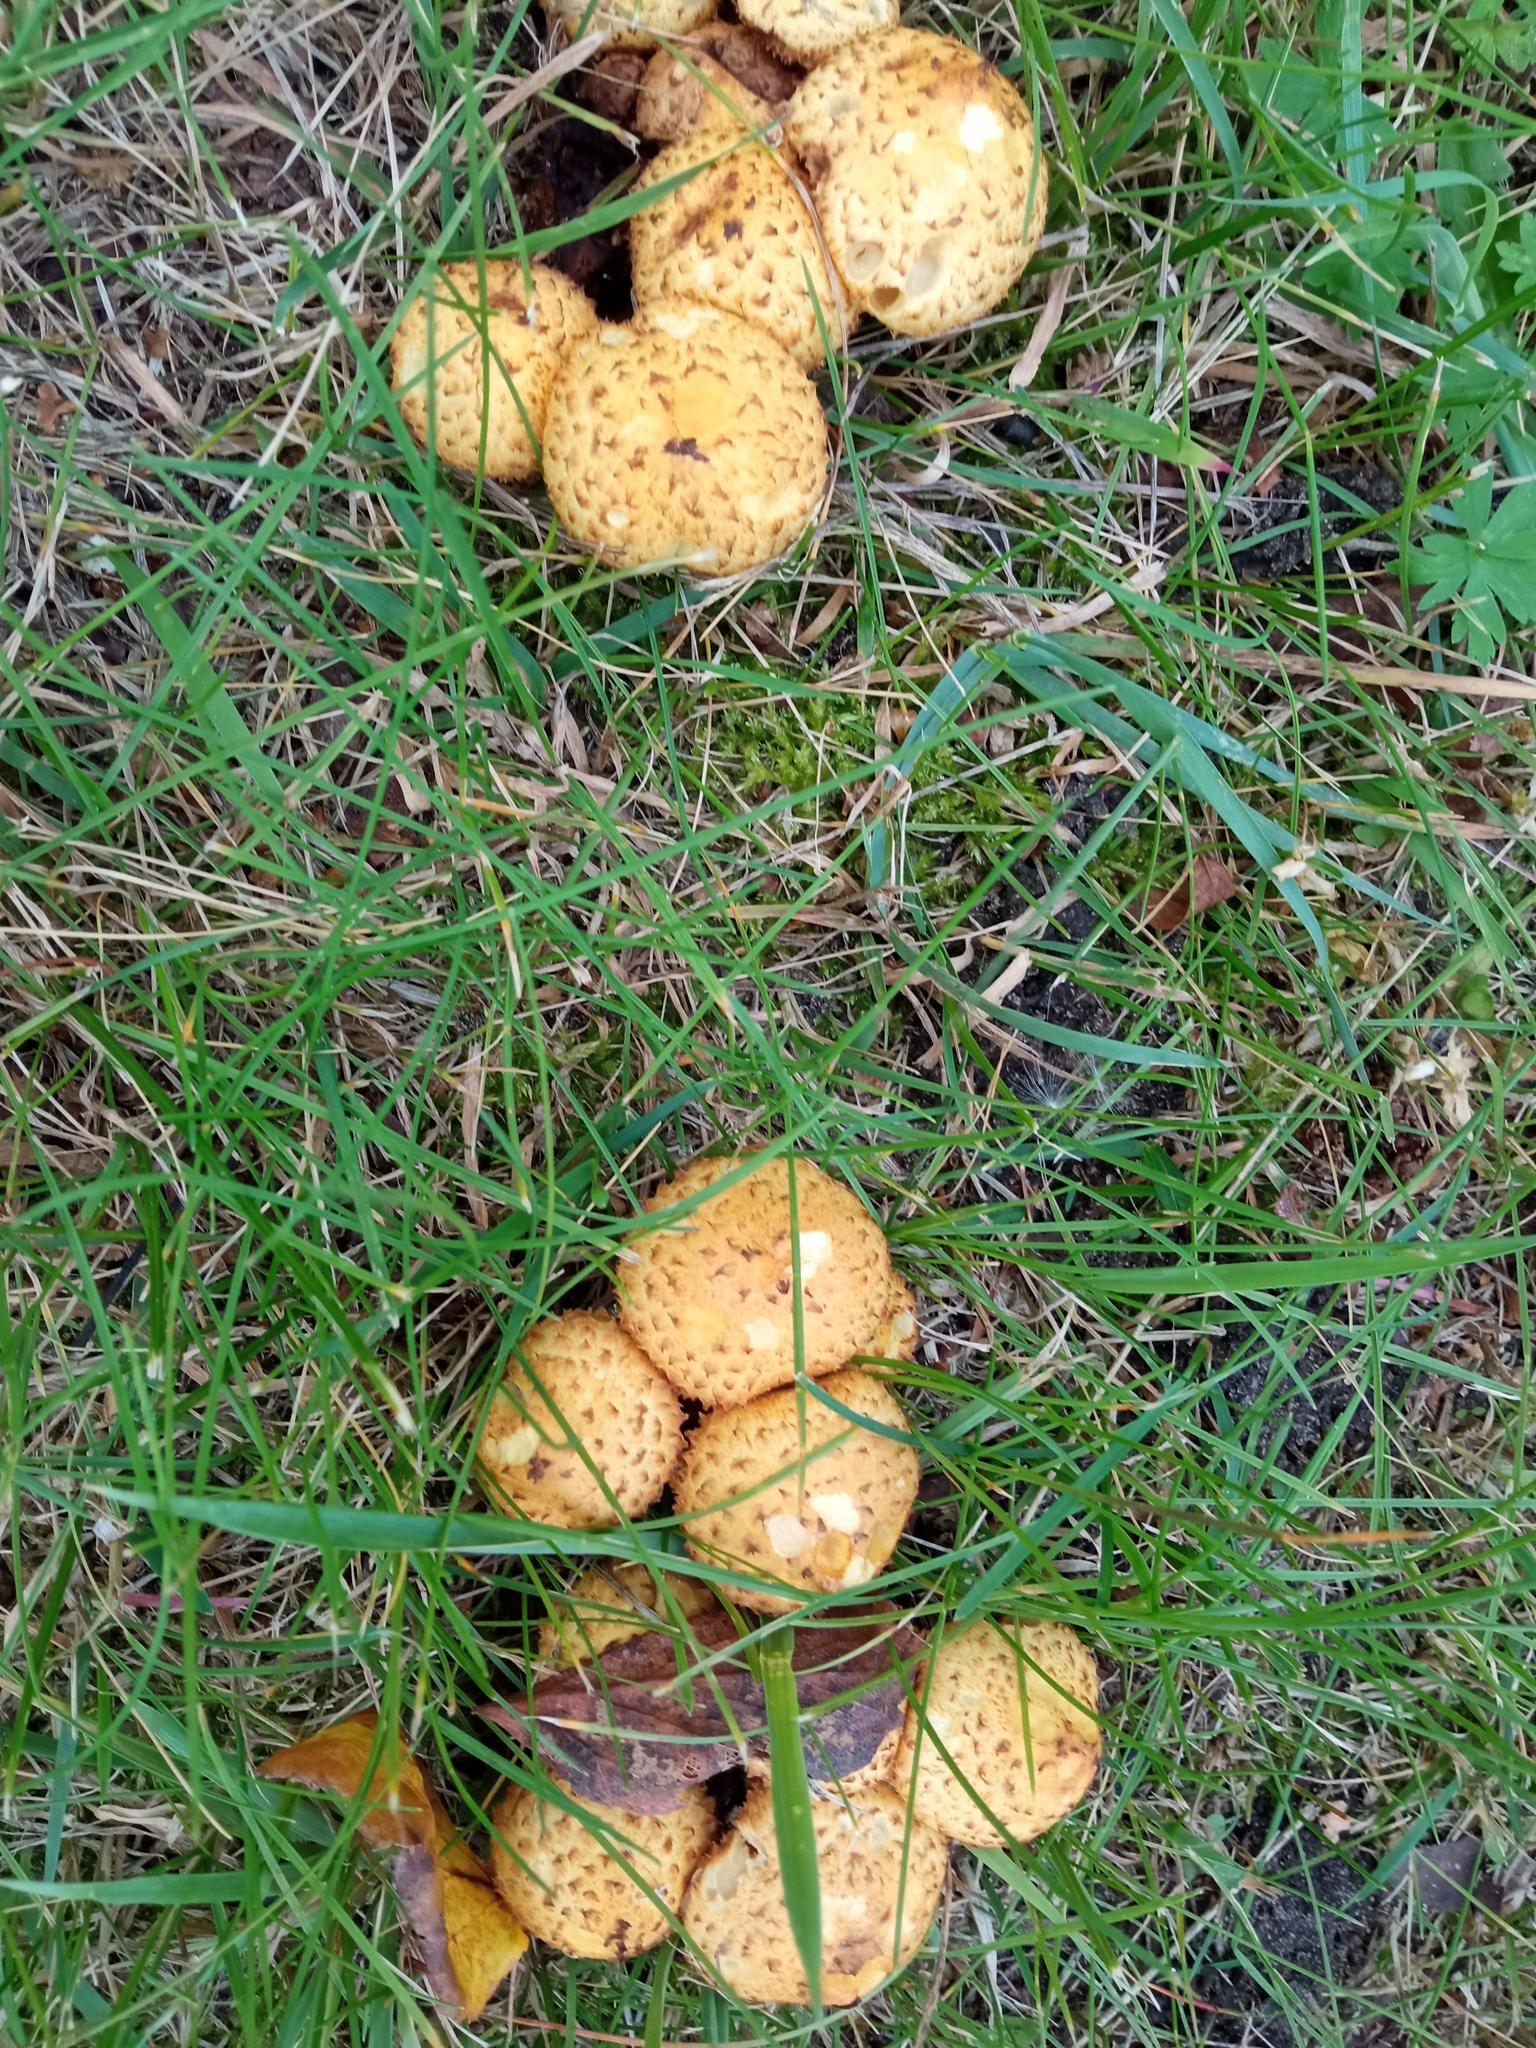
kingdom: Fungi
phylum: Basidiomycota
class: Agaricomycetes
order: Agaricales
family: Strophariaceae
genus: Pholiota
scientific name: Pholiota kodiakensis
